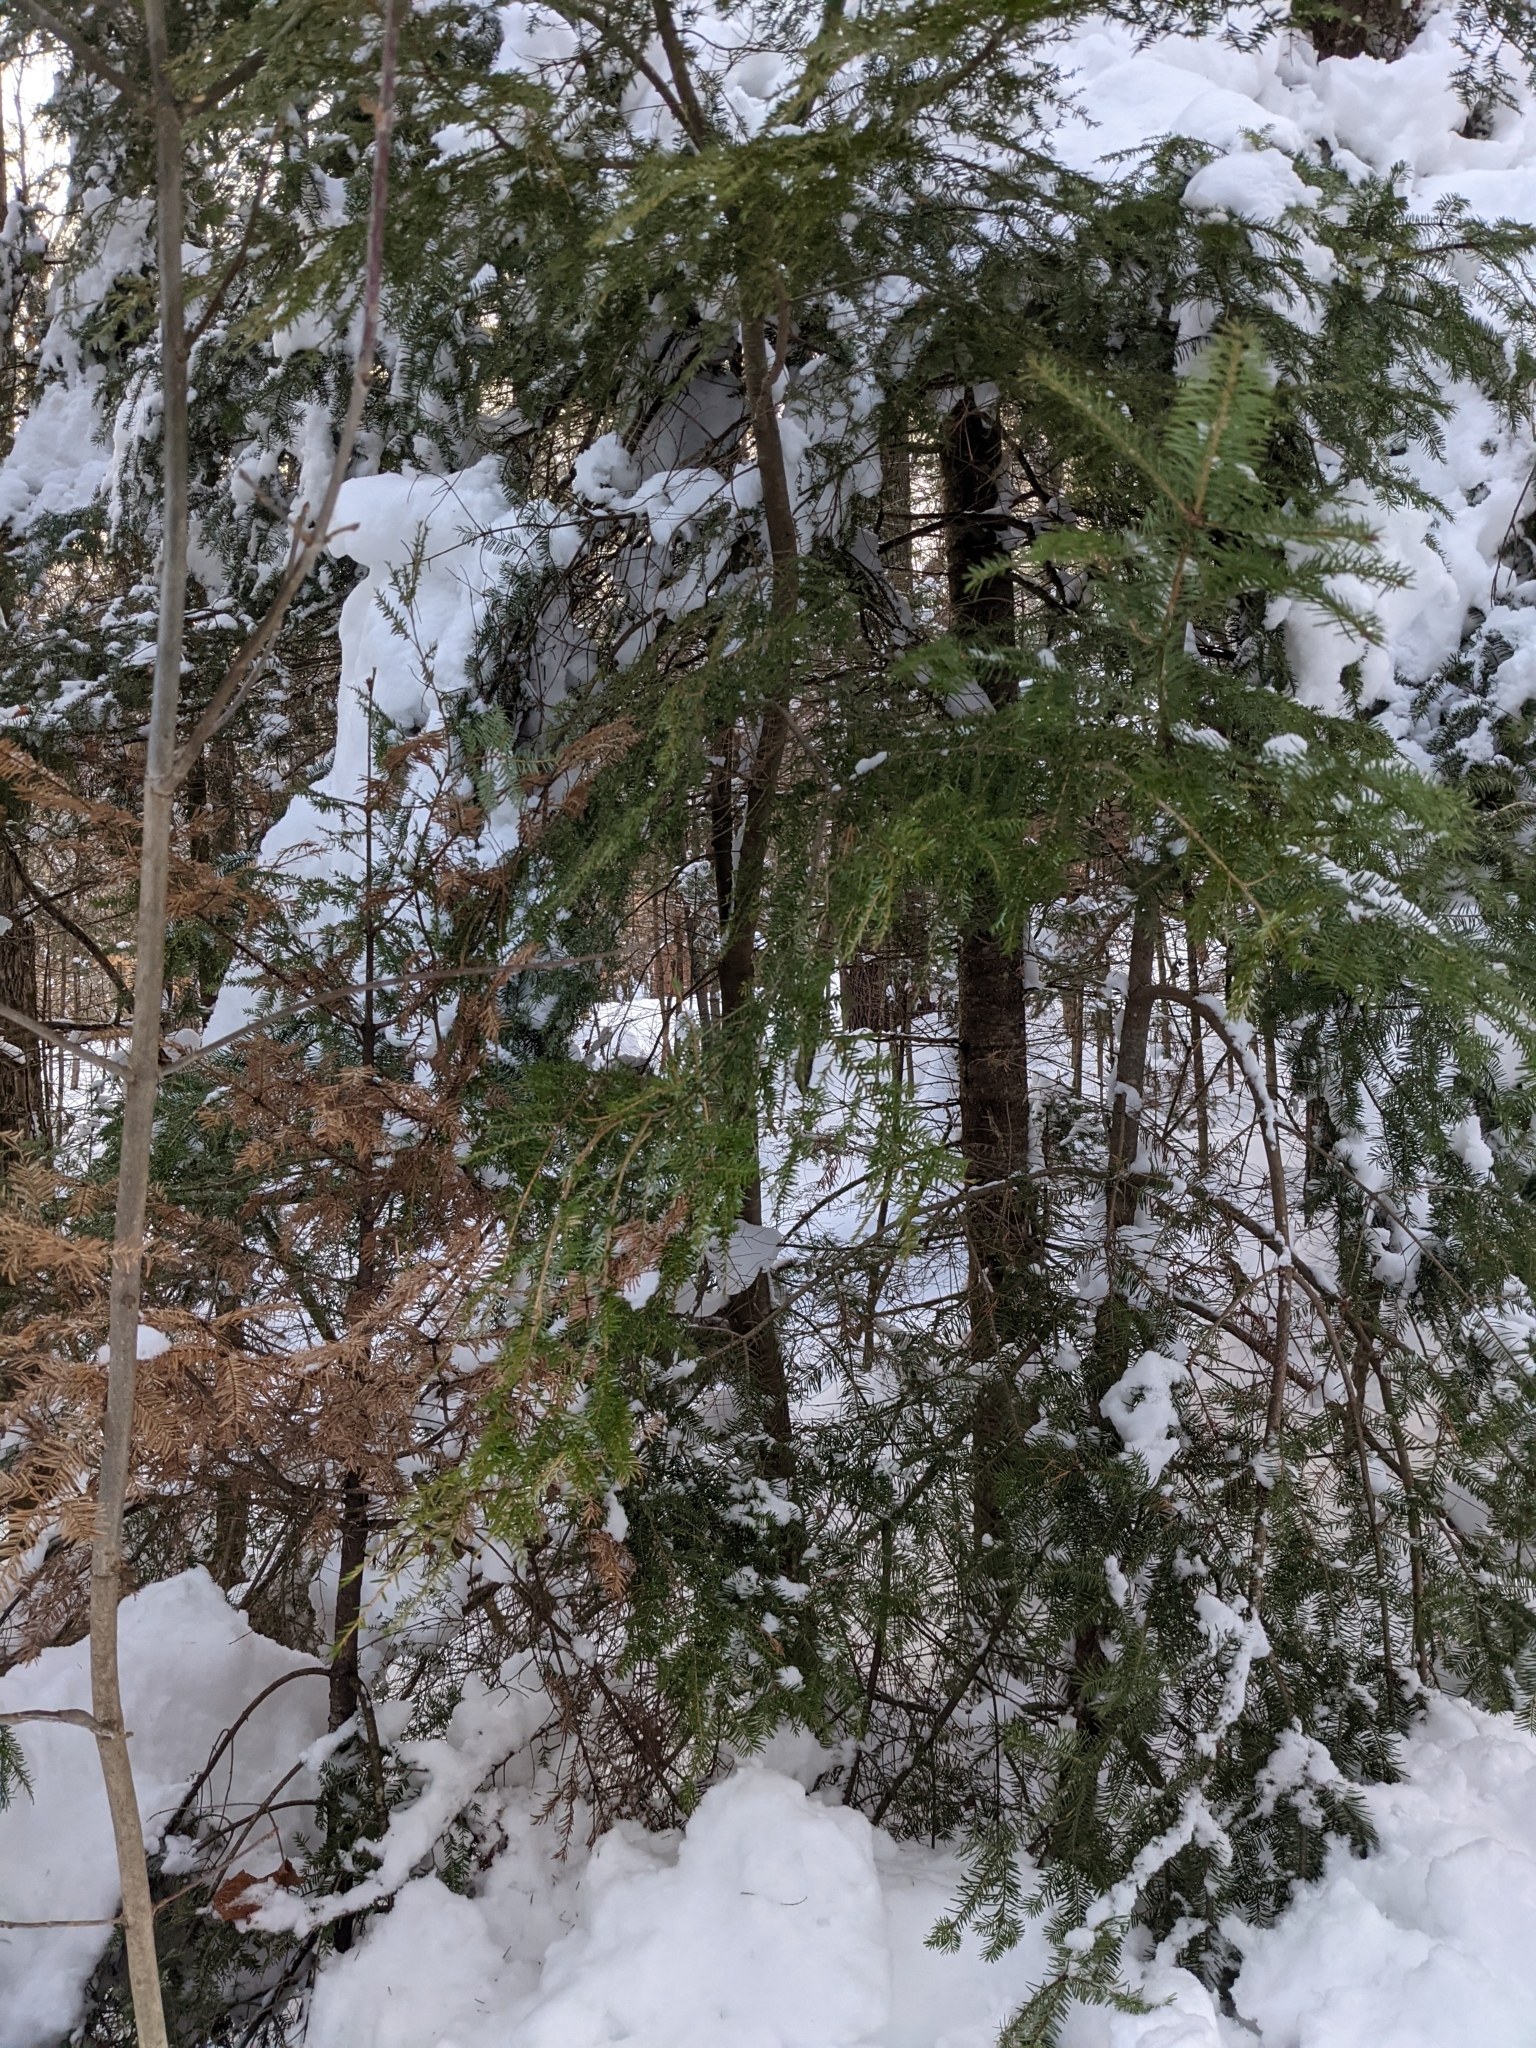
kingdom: Plantae
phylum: Tracheophyta
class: Pinopsida
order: Pinales
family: Pinaceae
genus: Tsuga
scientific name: Tsuga canadensis
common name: Eastern hemlock
